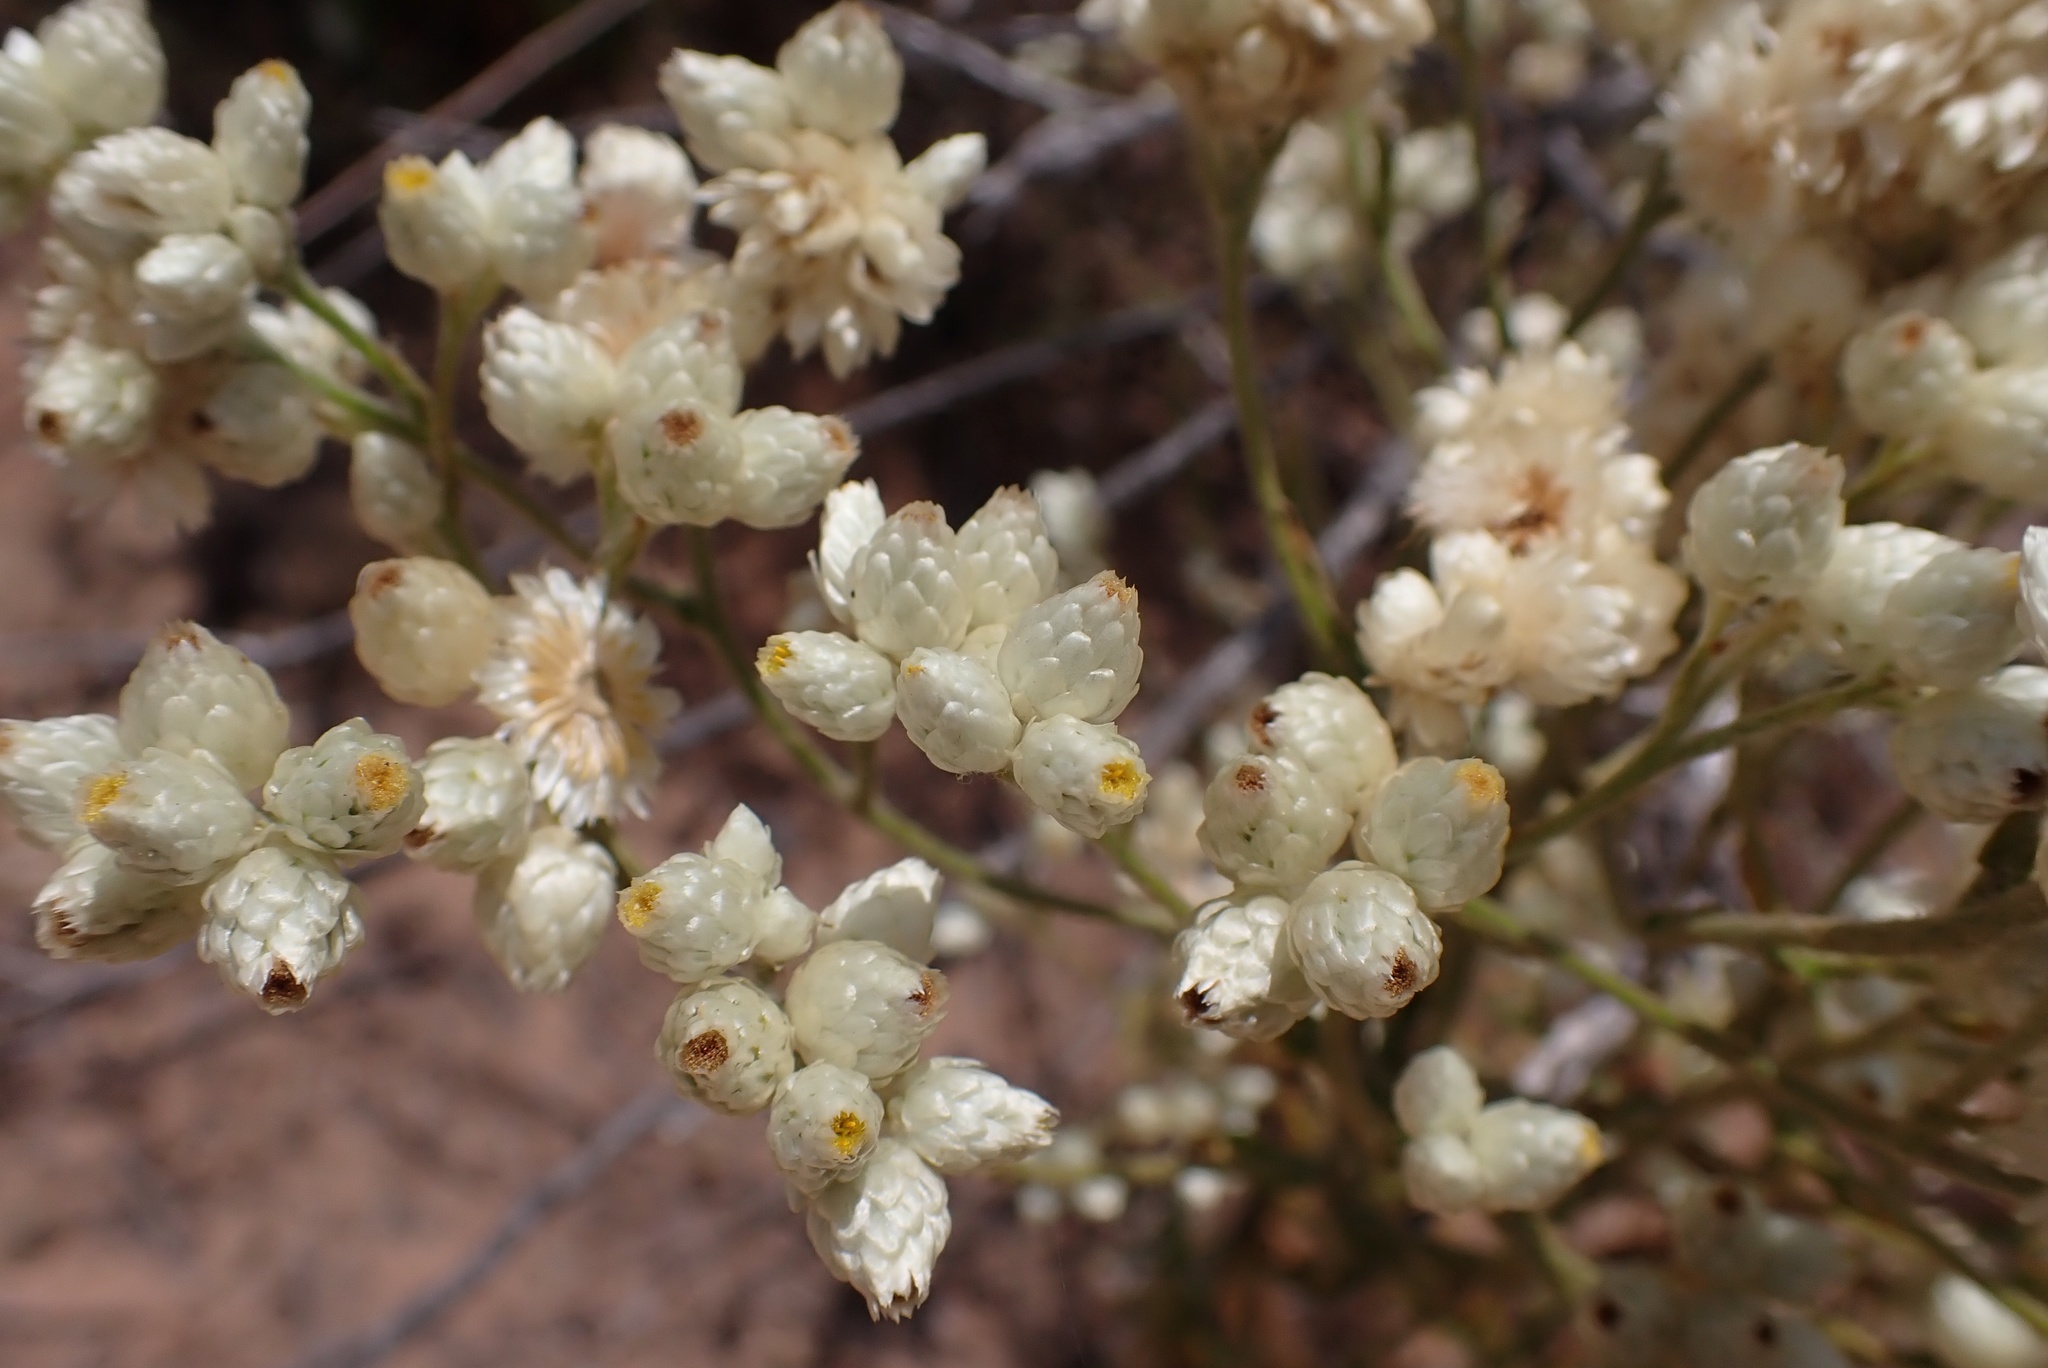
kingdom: Plantae
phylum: Tracheophyta
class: Magnoliopsida
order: Asterales
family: Asteraceae
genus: Pseudognaphalium
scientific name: Pseudognaphalium californicum
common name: California rabbit-tobacco
